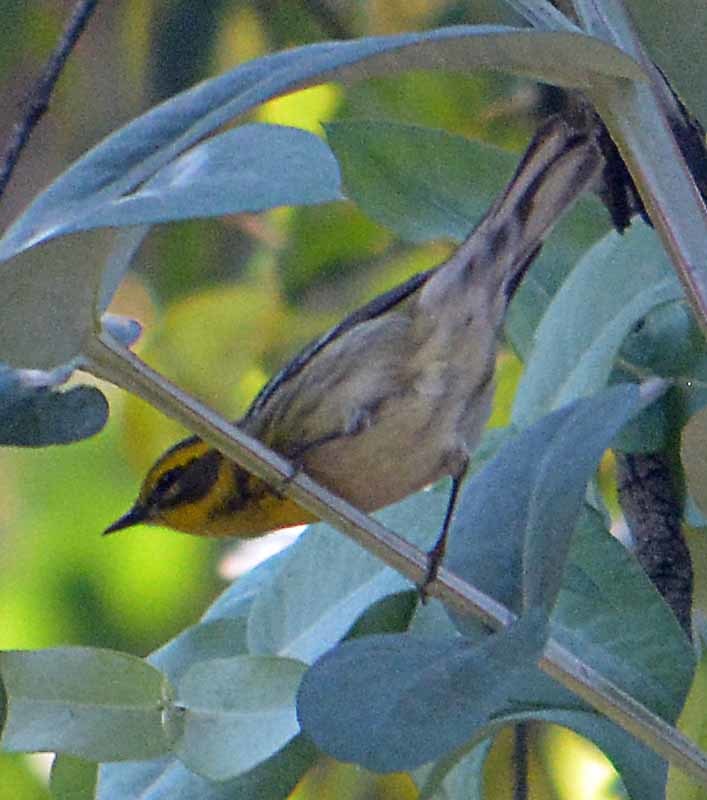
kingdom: Animalia
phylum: Chordata
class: Aves
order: Passeriformes
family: Parulidae
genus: Setophaga
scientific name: Setophaga townsendi
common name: Townsend's warbler
